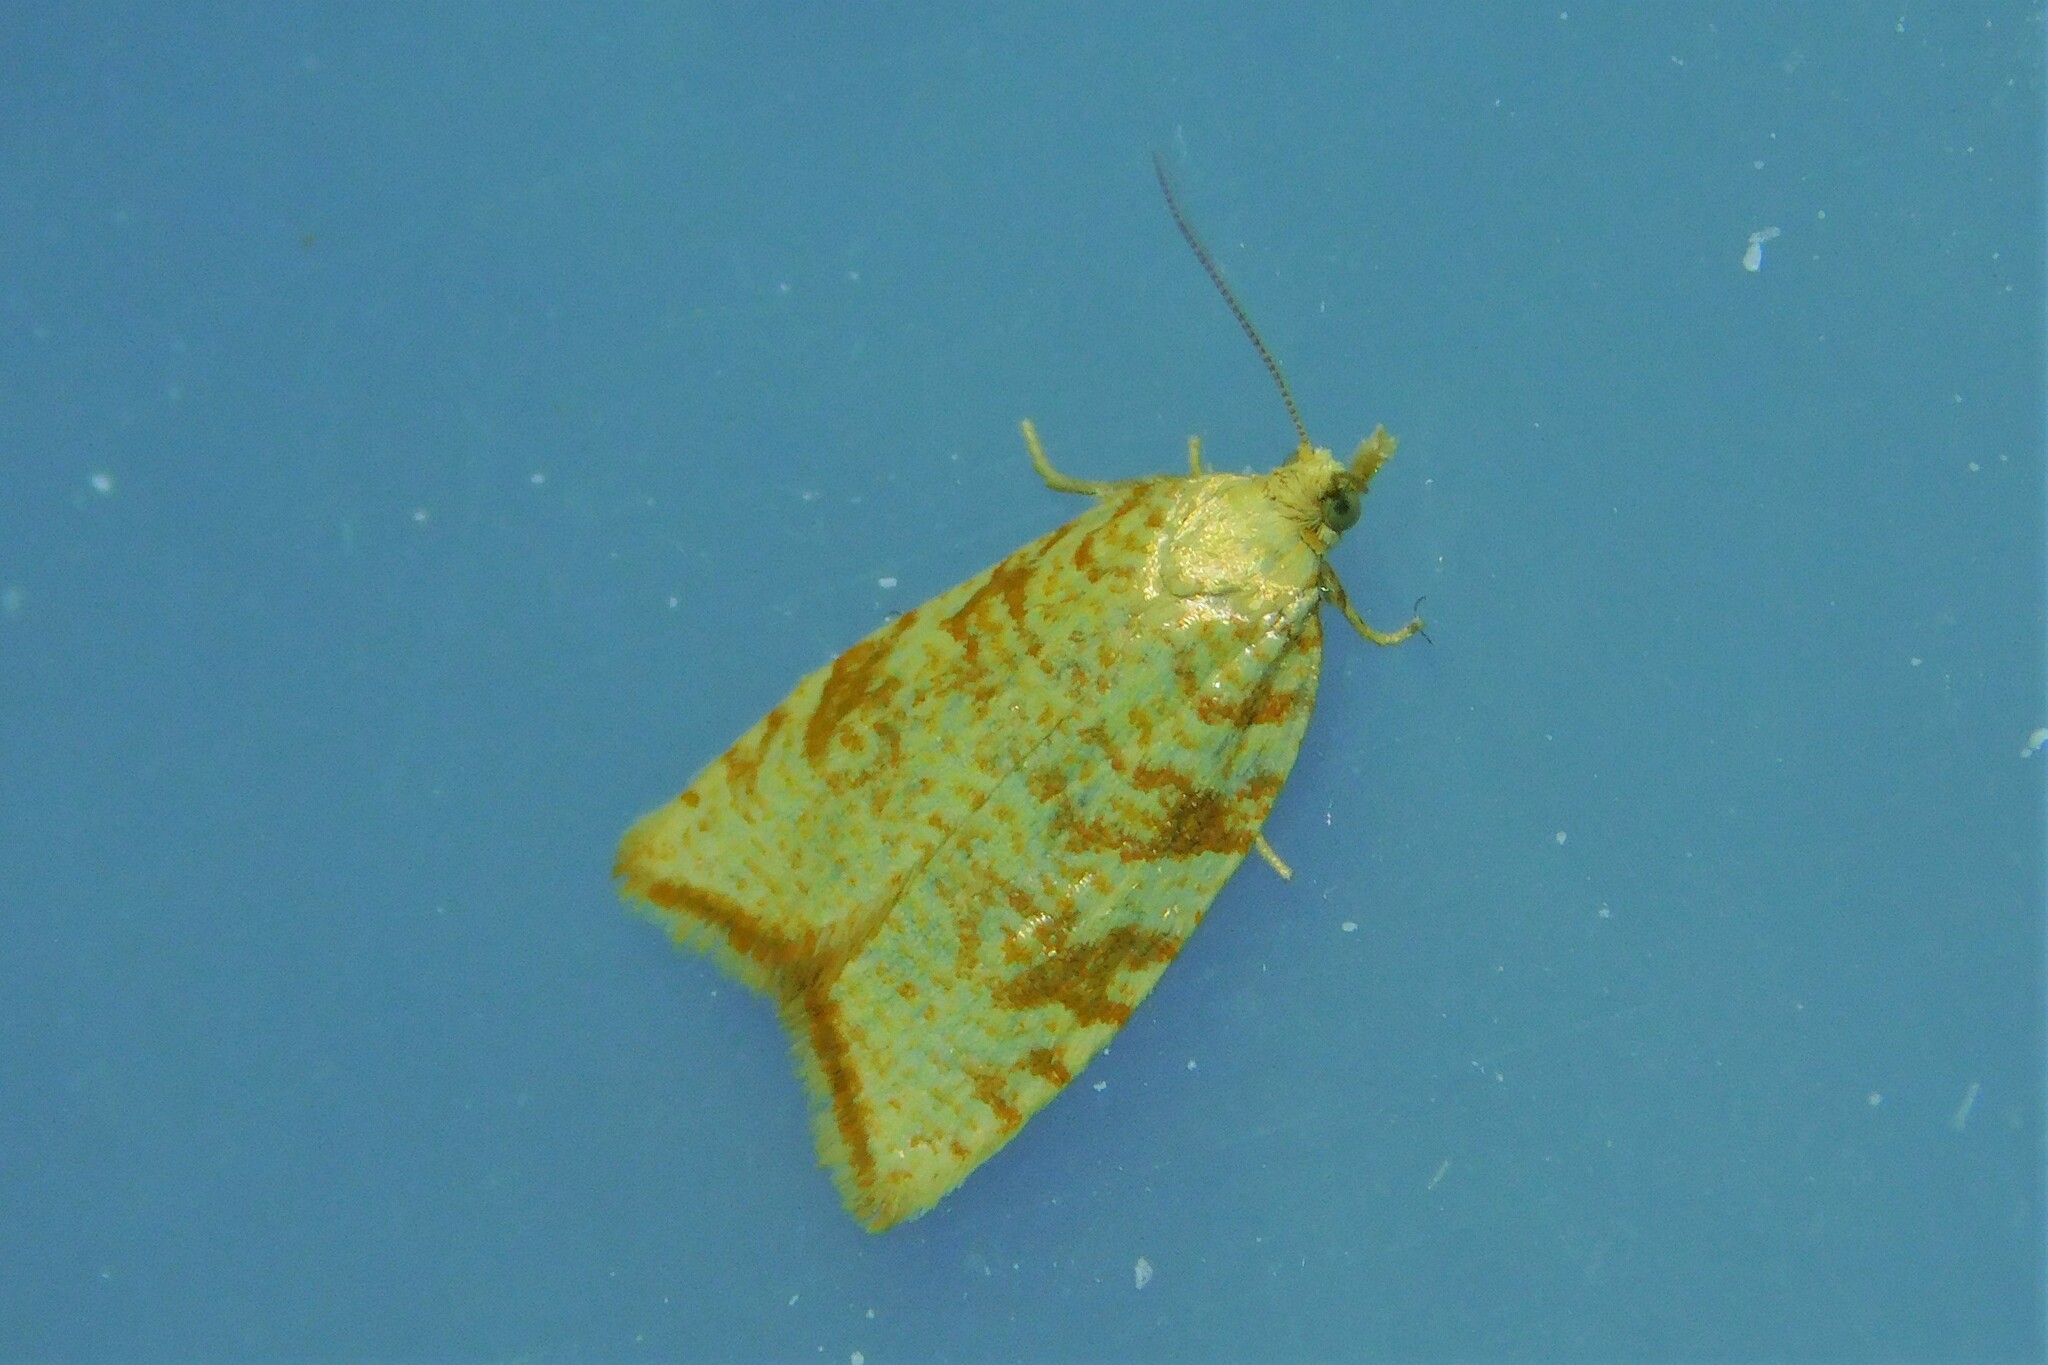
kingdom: Animalia
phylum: Arthropoda
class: Insecta
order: Lepidoptera
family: Tortricidae
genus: Aleimma
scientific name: Aleimma loeflingiana
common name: Yellow oak button
